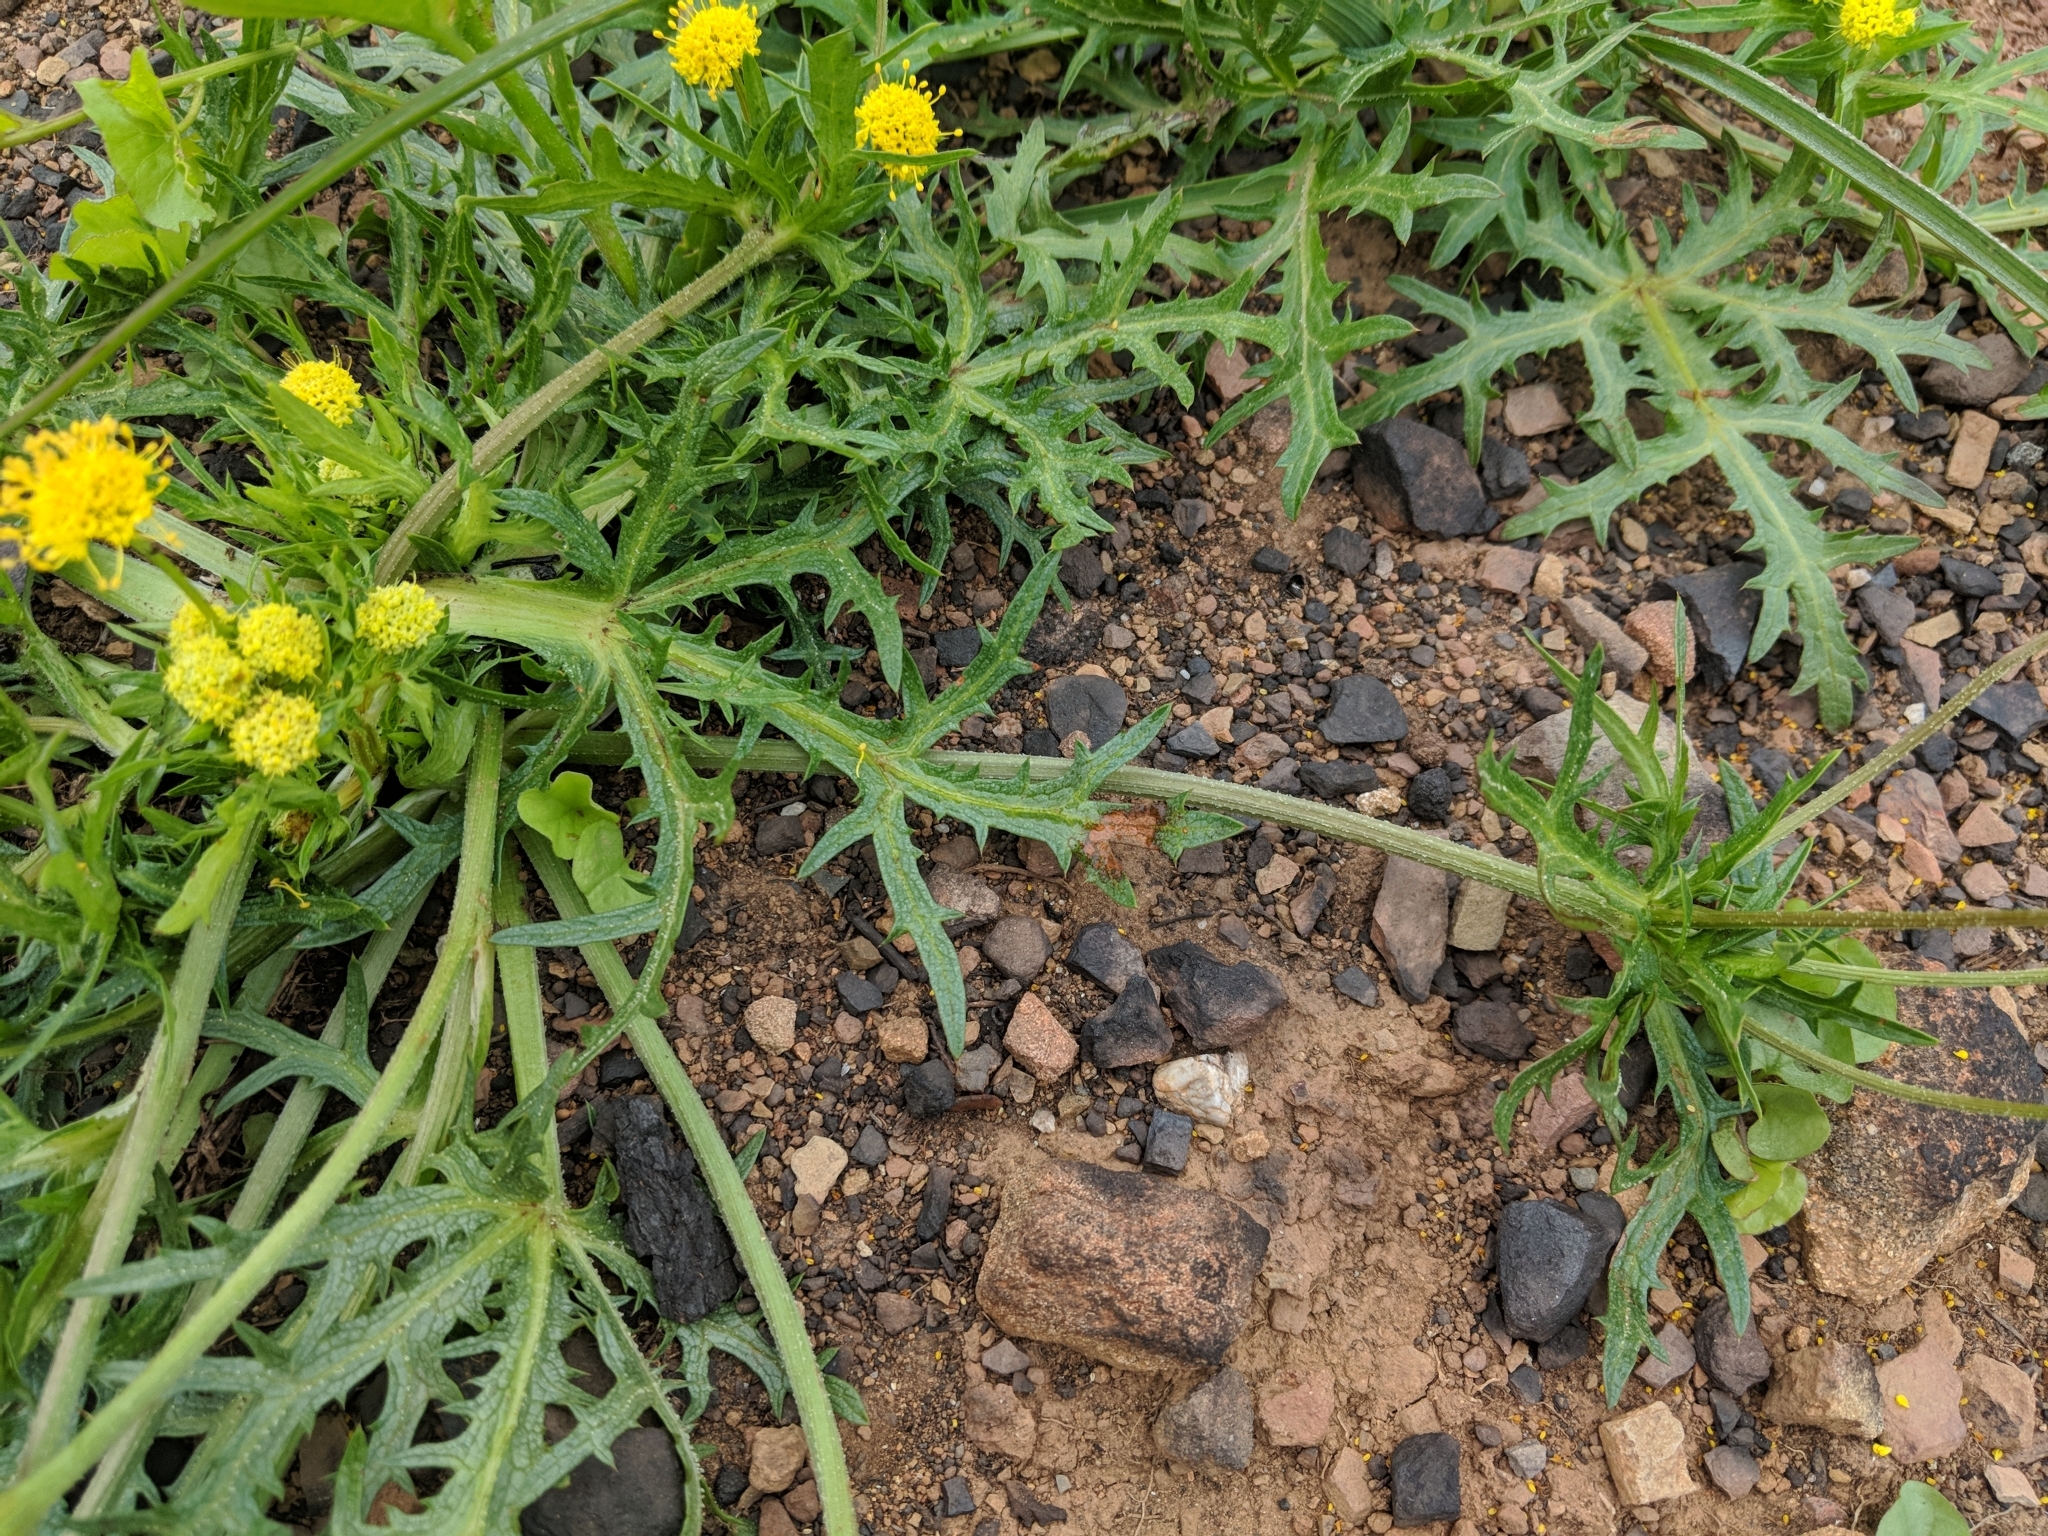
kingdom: Plantae
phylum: Tracheophyta
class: Magnoliopsida
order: Apiales
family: Apiaceae
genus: Sanicula
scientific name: Sanicula arguta
